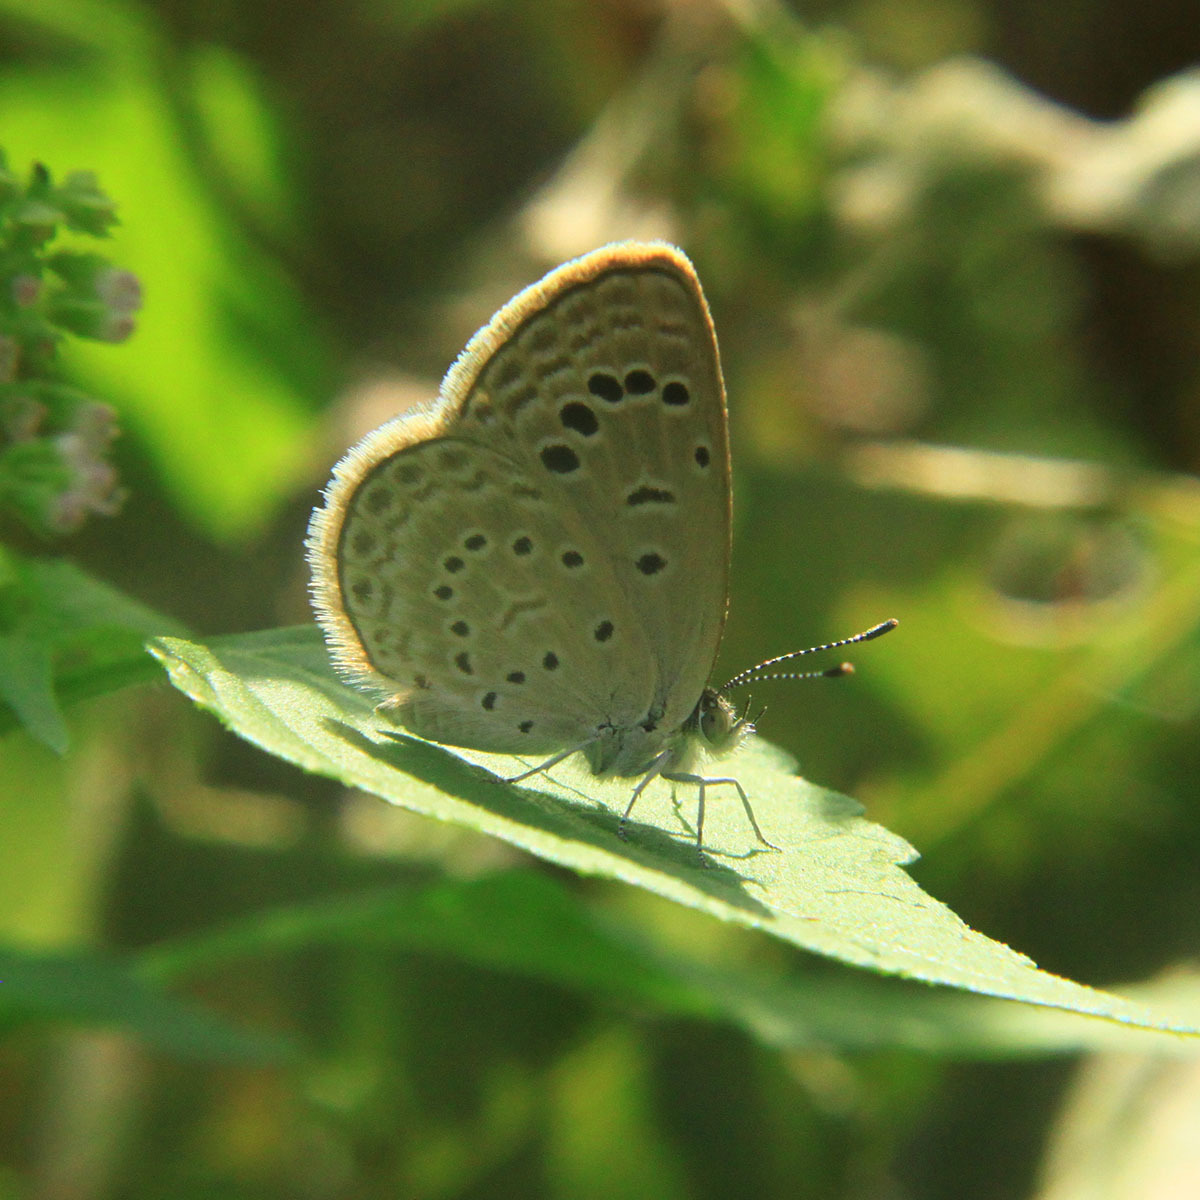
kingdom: Animalia
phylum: Arthropoda
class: Insecta
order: Lepidoptera
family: Lycaenidae
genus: Zizeeria
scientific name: Zizeeria karsandra
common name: Dark grass blue
